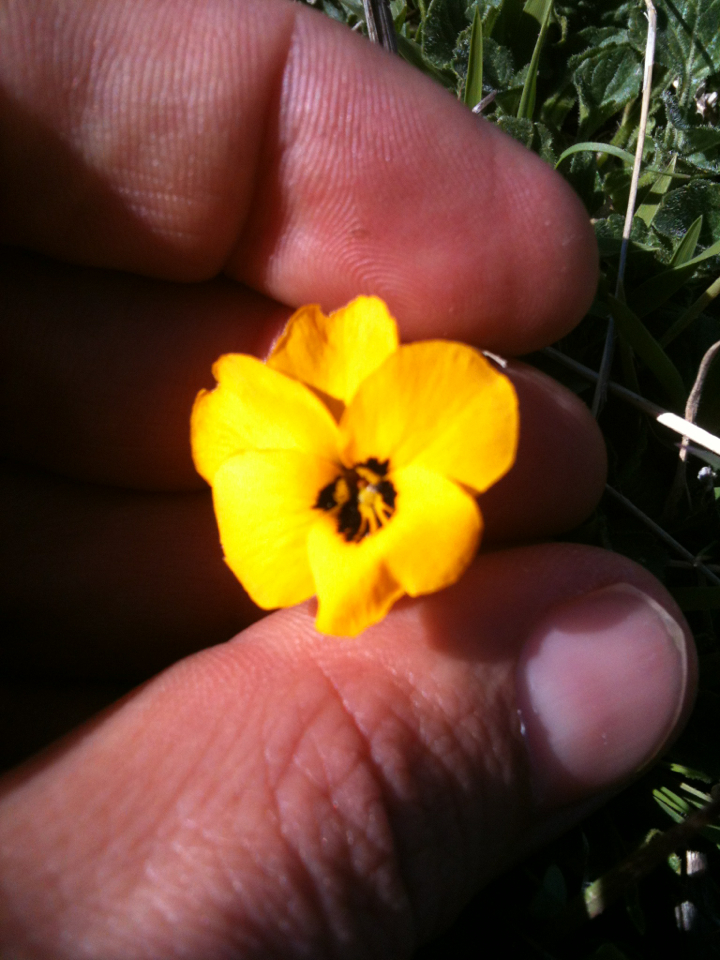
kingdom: Plantae
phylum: Tracheophyta
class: Magnoliopsida
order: Malpighiales
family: Violaceae
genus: Viola
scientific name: Viola pedunculata
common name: California golden violet
